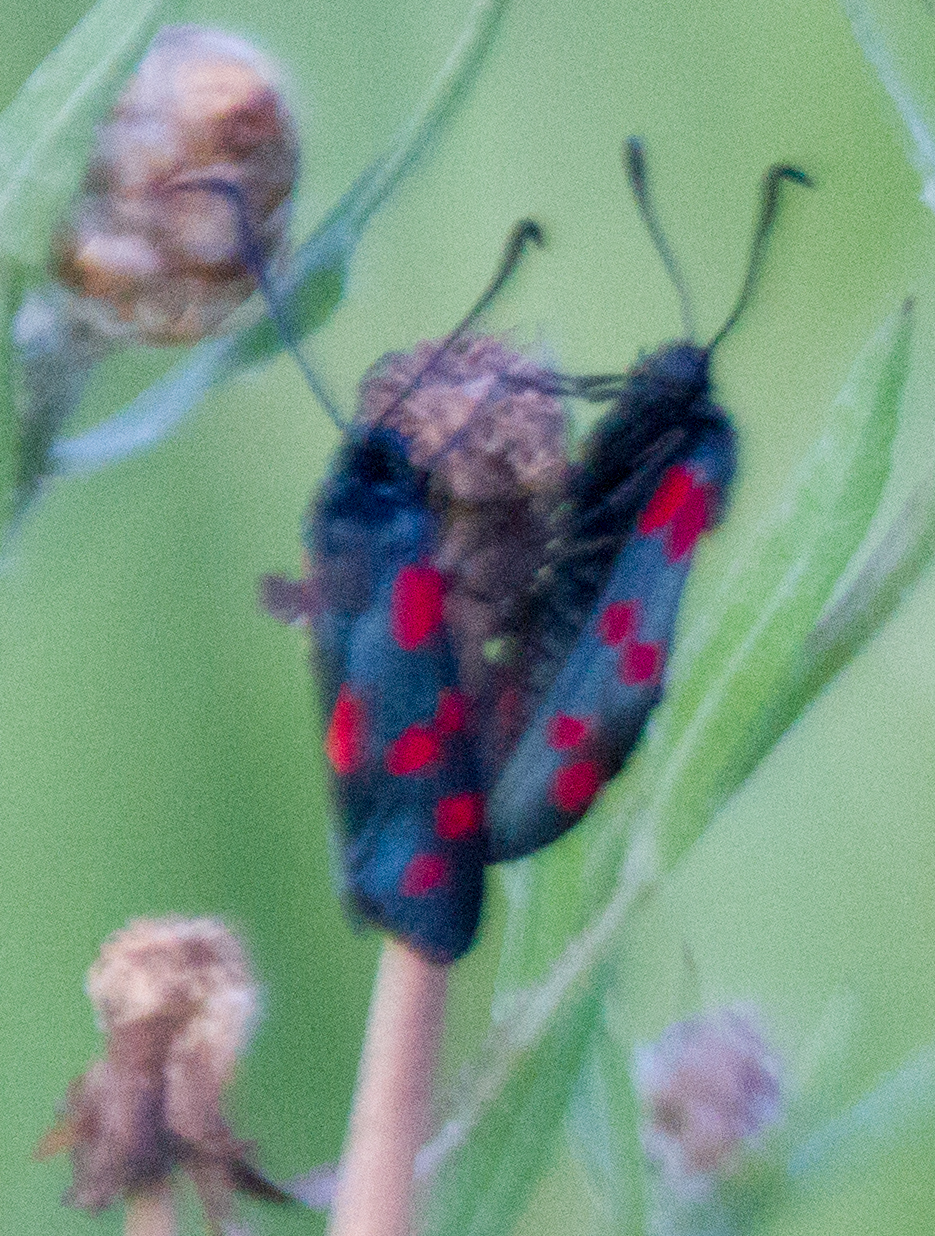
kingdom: Animalia
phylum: Arthropoda
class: Insecta
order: Lepidoptera
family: Zygaenidae
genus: Zygaena
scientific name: Zygaena filipendulae
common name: Six-spot burnet
